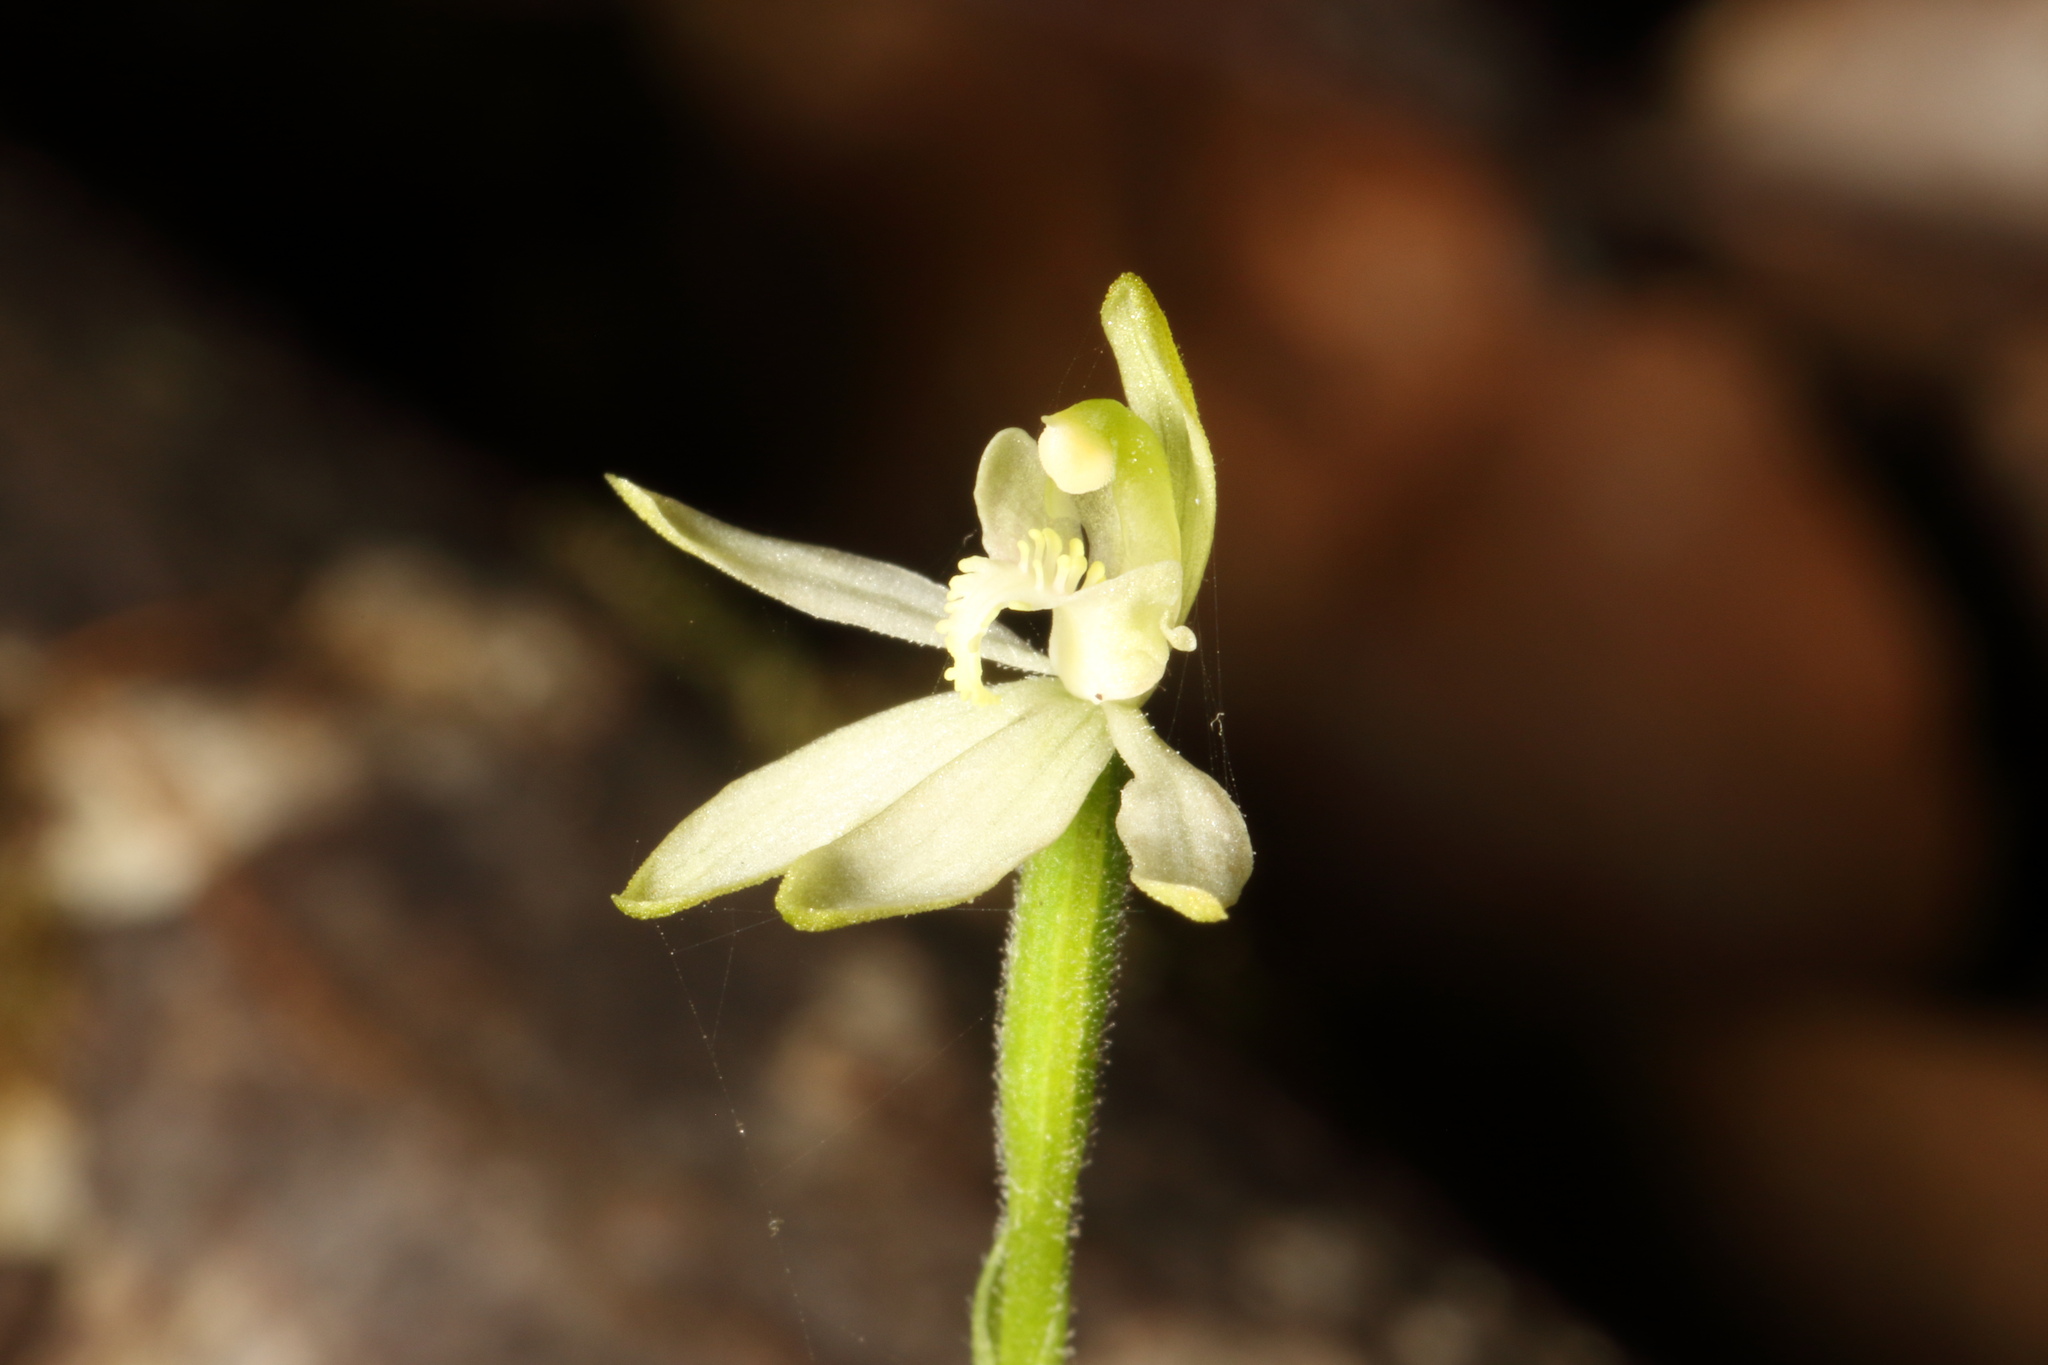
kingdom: Plantae
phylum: Tracheophyta
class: Liliopsida
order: Asparagales
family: Orchidaceae
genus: Caladenia
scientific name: Caladenia nothofageti
